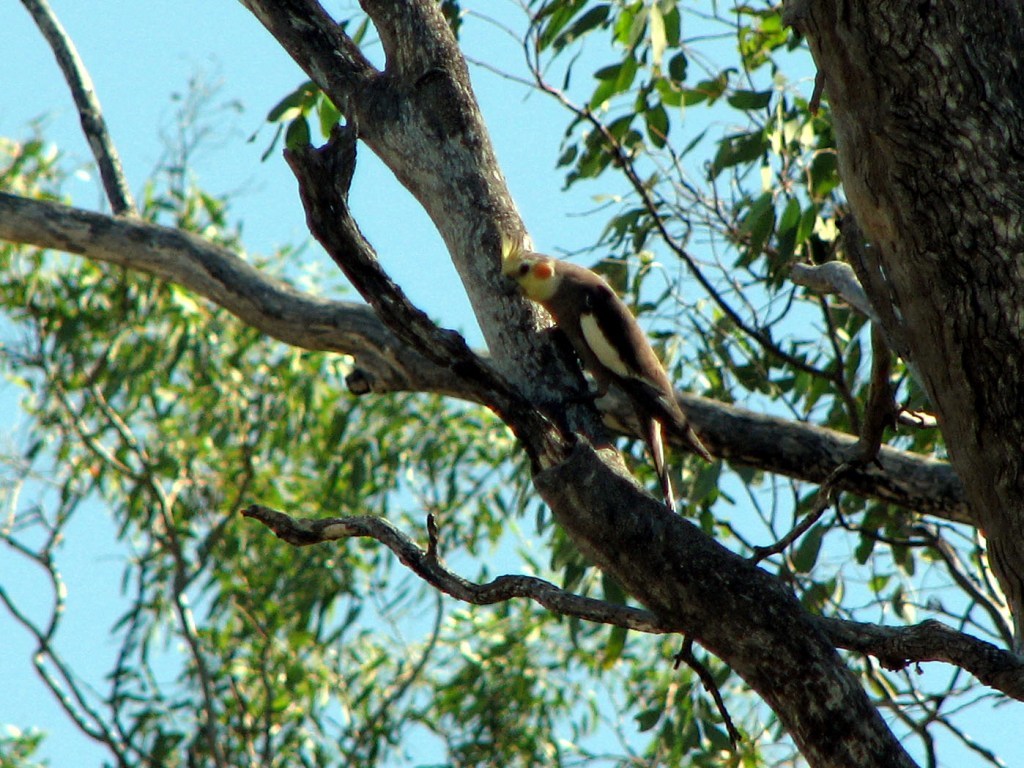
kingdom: Animalia
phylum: Chordata
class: Aves
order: Psittaciformes
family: Psittacidae
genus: Nymphicus
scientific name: Nymphicus hollandicus
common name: Cockatiel
